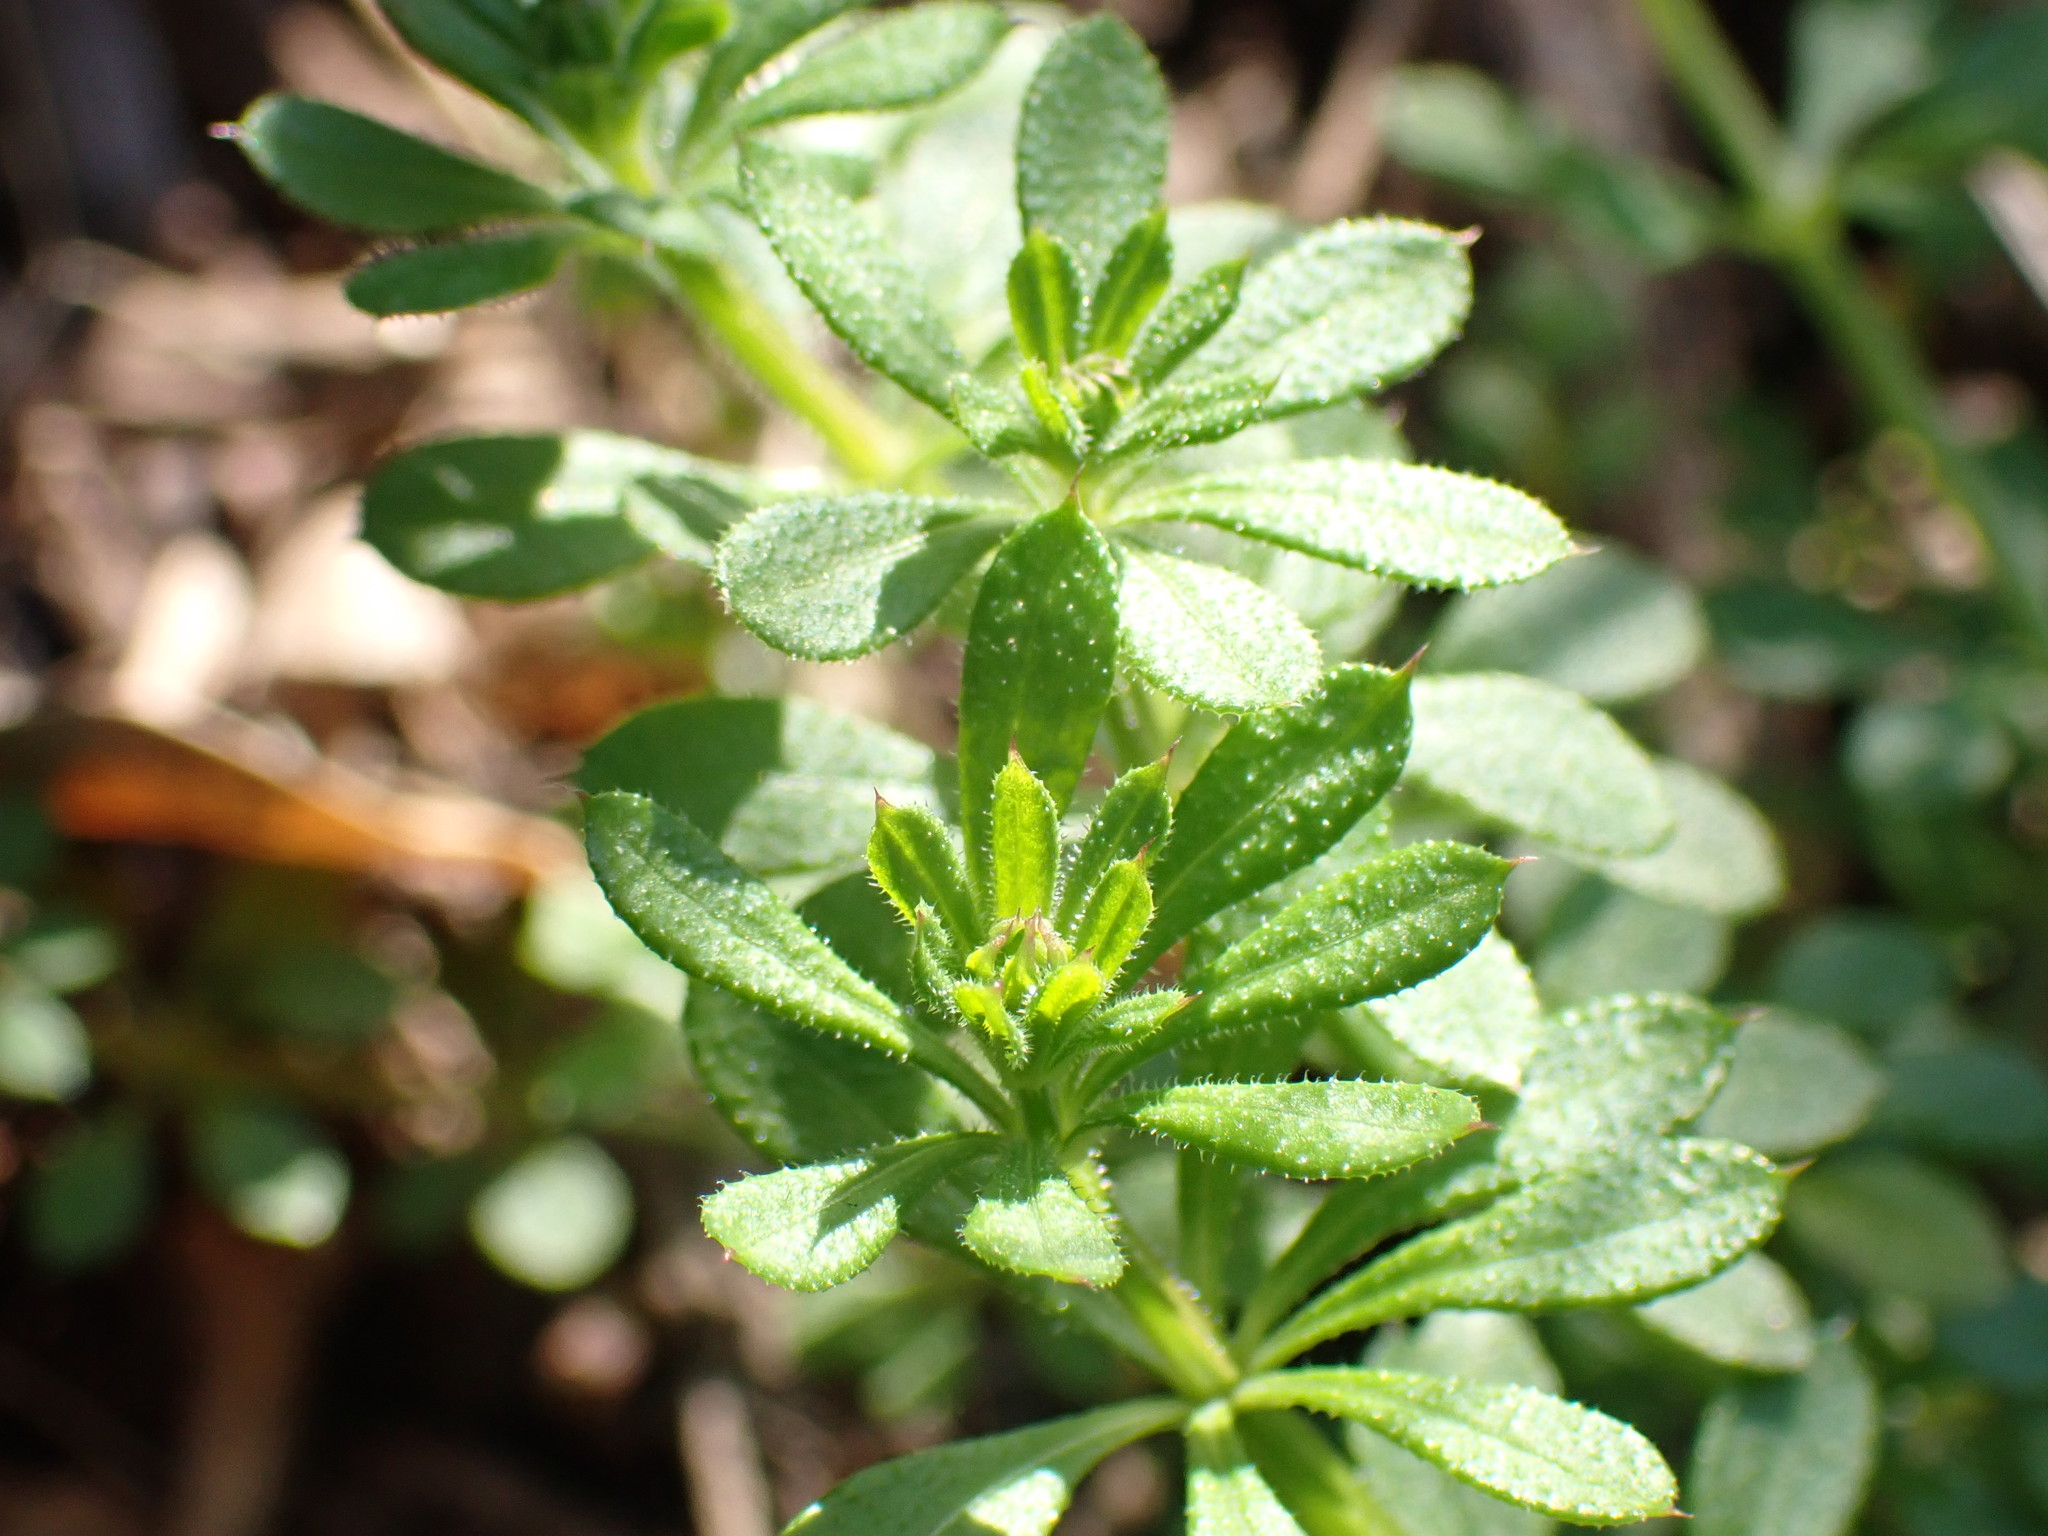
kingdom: Plantae
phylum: Tracheophyta
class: Magnoliopsida
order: Gentianales
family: Rubiaceae
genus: Galium
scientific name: Galium aparine
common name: Cleavers
